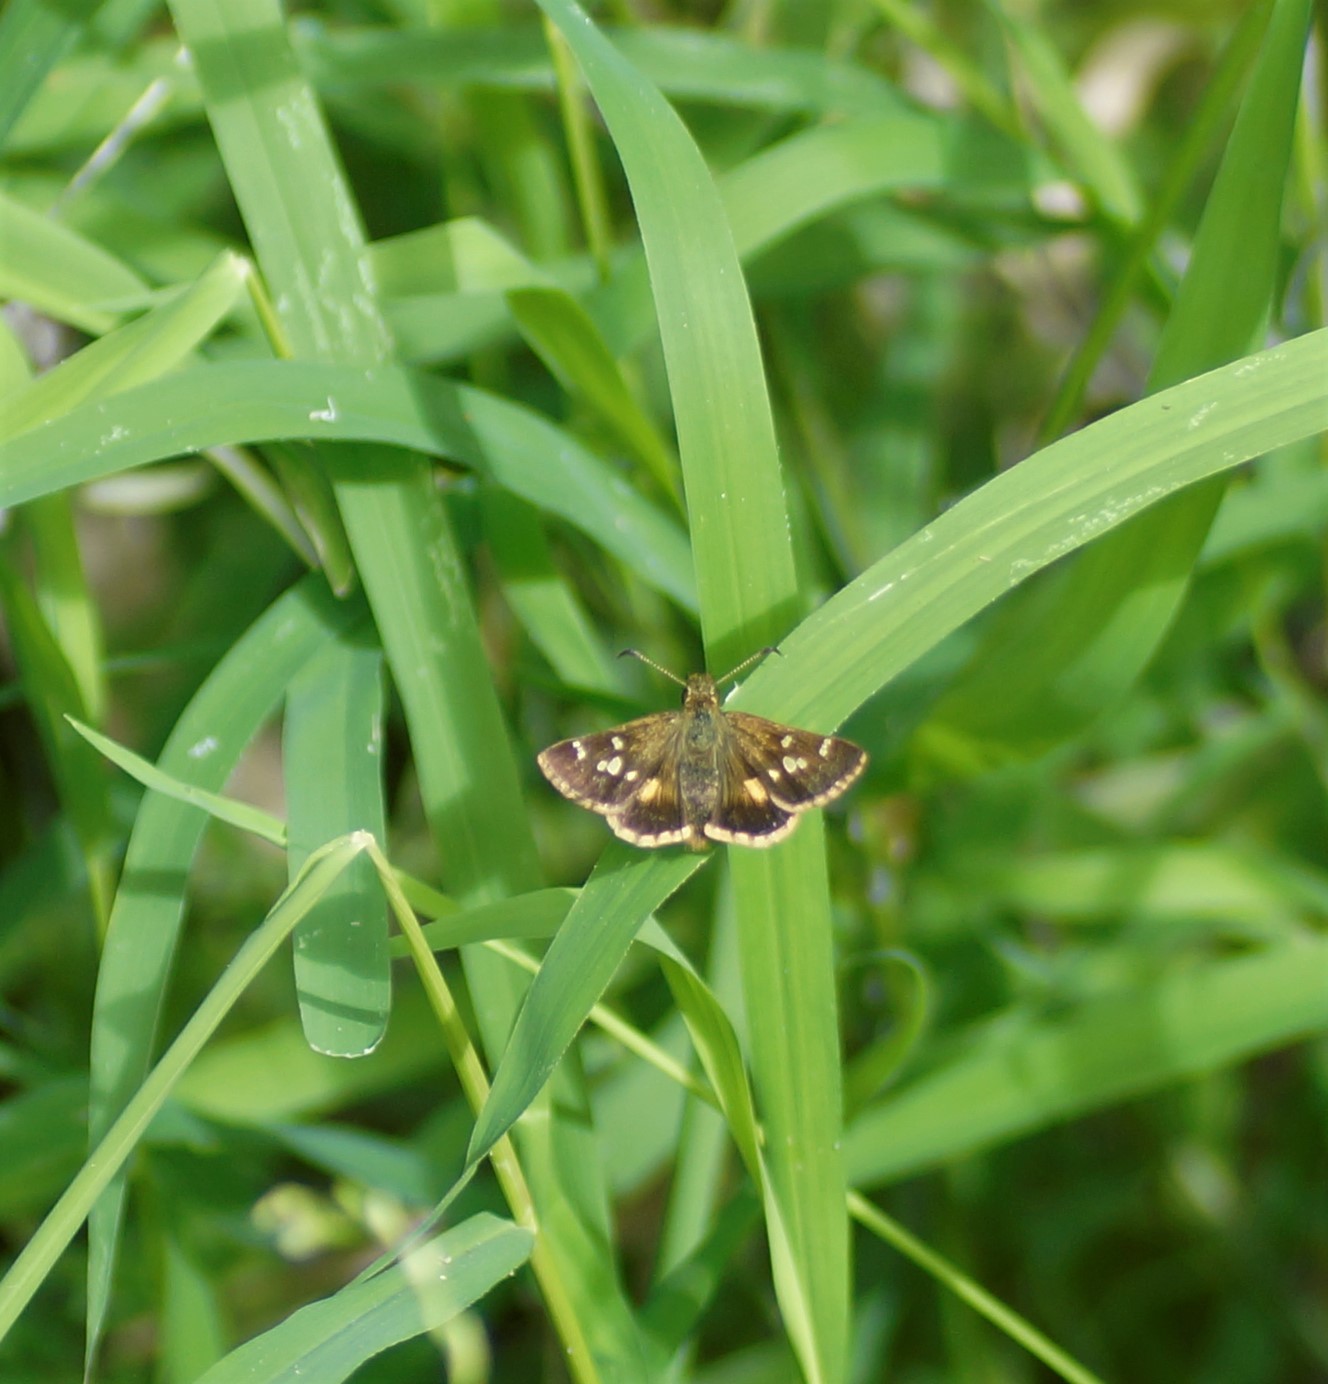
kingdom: Animalia
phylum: Arthropoda
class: Insecta
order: Lepidoptera
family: Hesperiidae
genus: Dispar
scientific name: Dispar compacta
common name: Barred skipper
